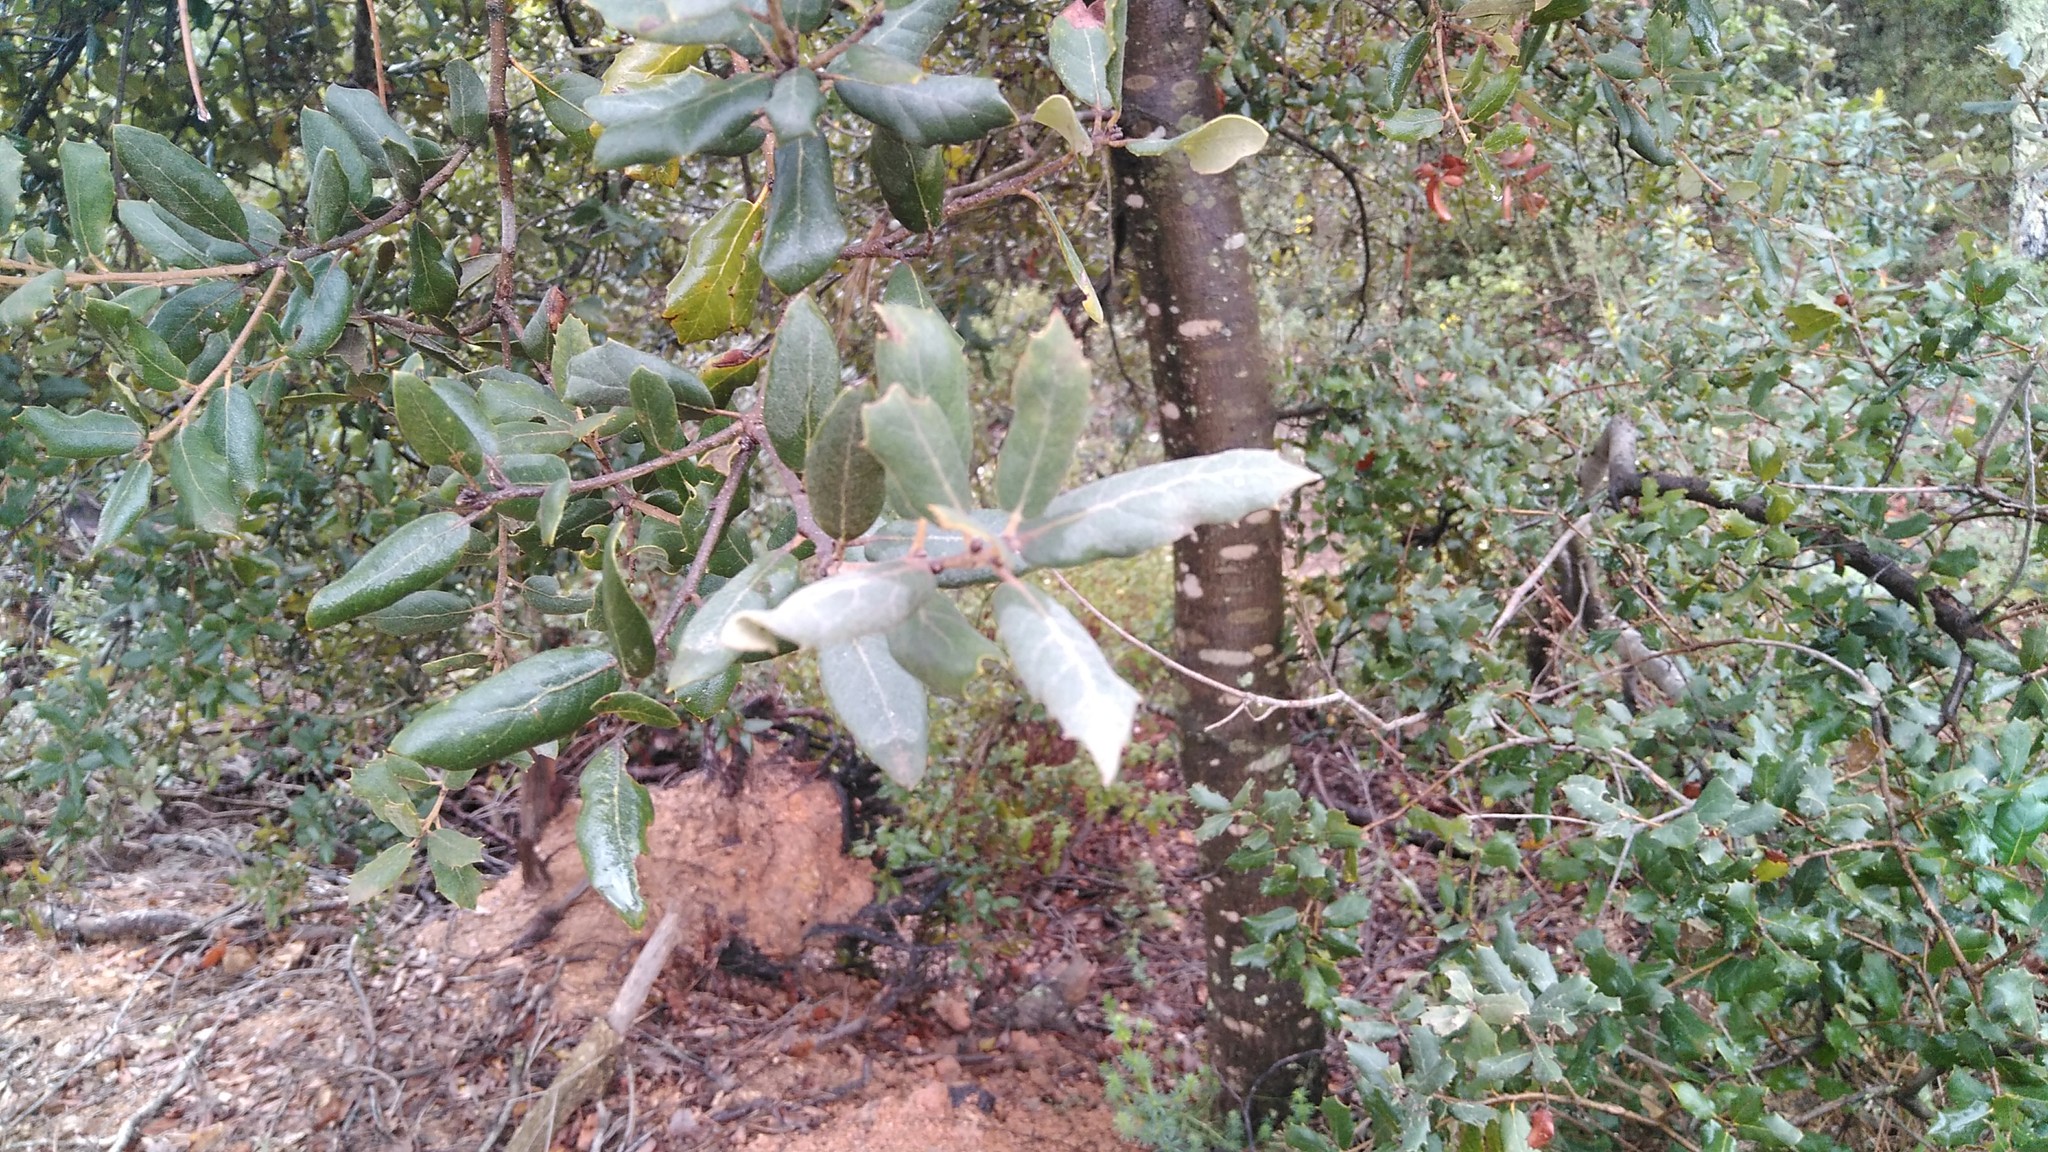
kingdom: Plantae
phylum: Tracheophyta
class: Magnoliopsida
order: Fagales
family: Fagaceae
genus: Quercus
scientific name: Quercus ilex
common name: Evergreen oak
